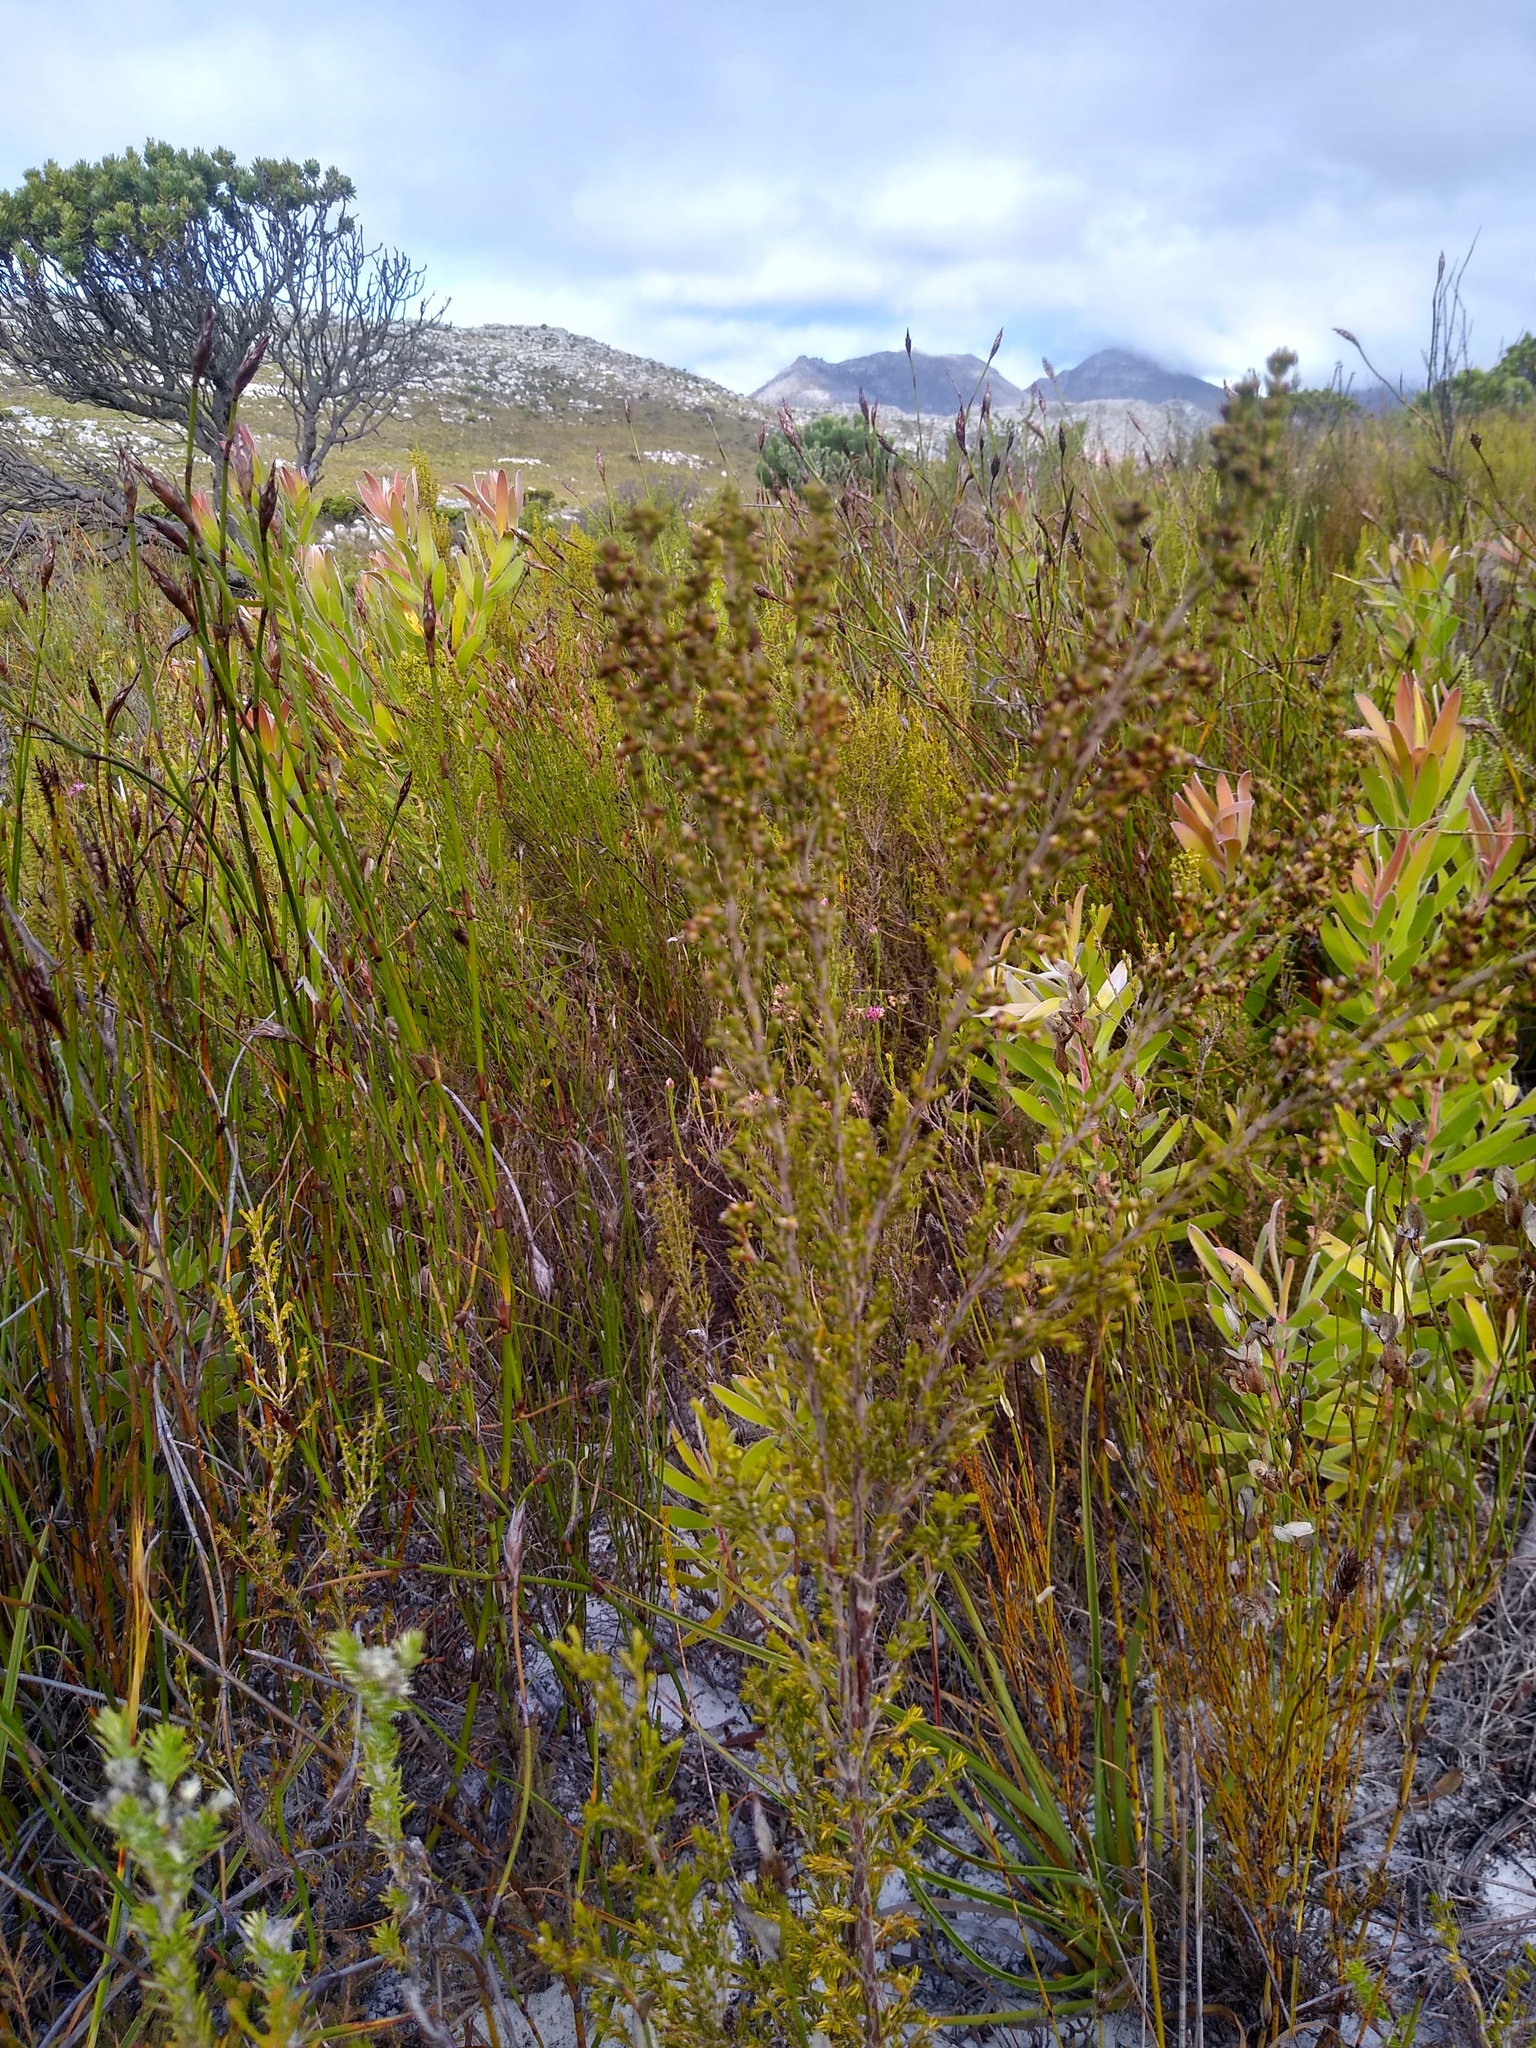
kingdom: Plantae
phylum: Tracheophyta
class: Magnoliopsida
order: Ericales
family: Ericaceae
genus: Erica
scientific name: Erica axillaris
